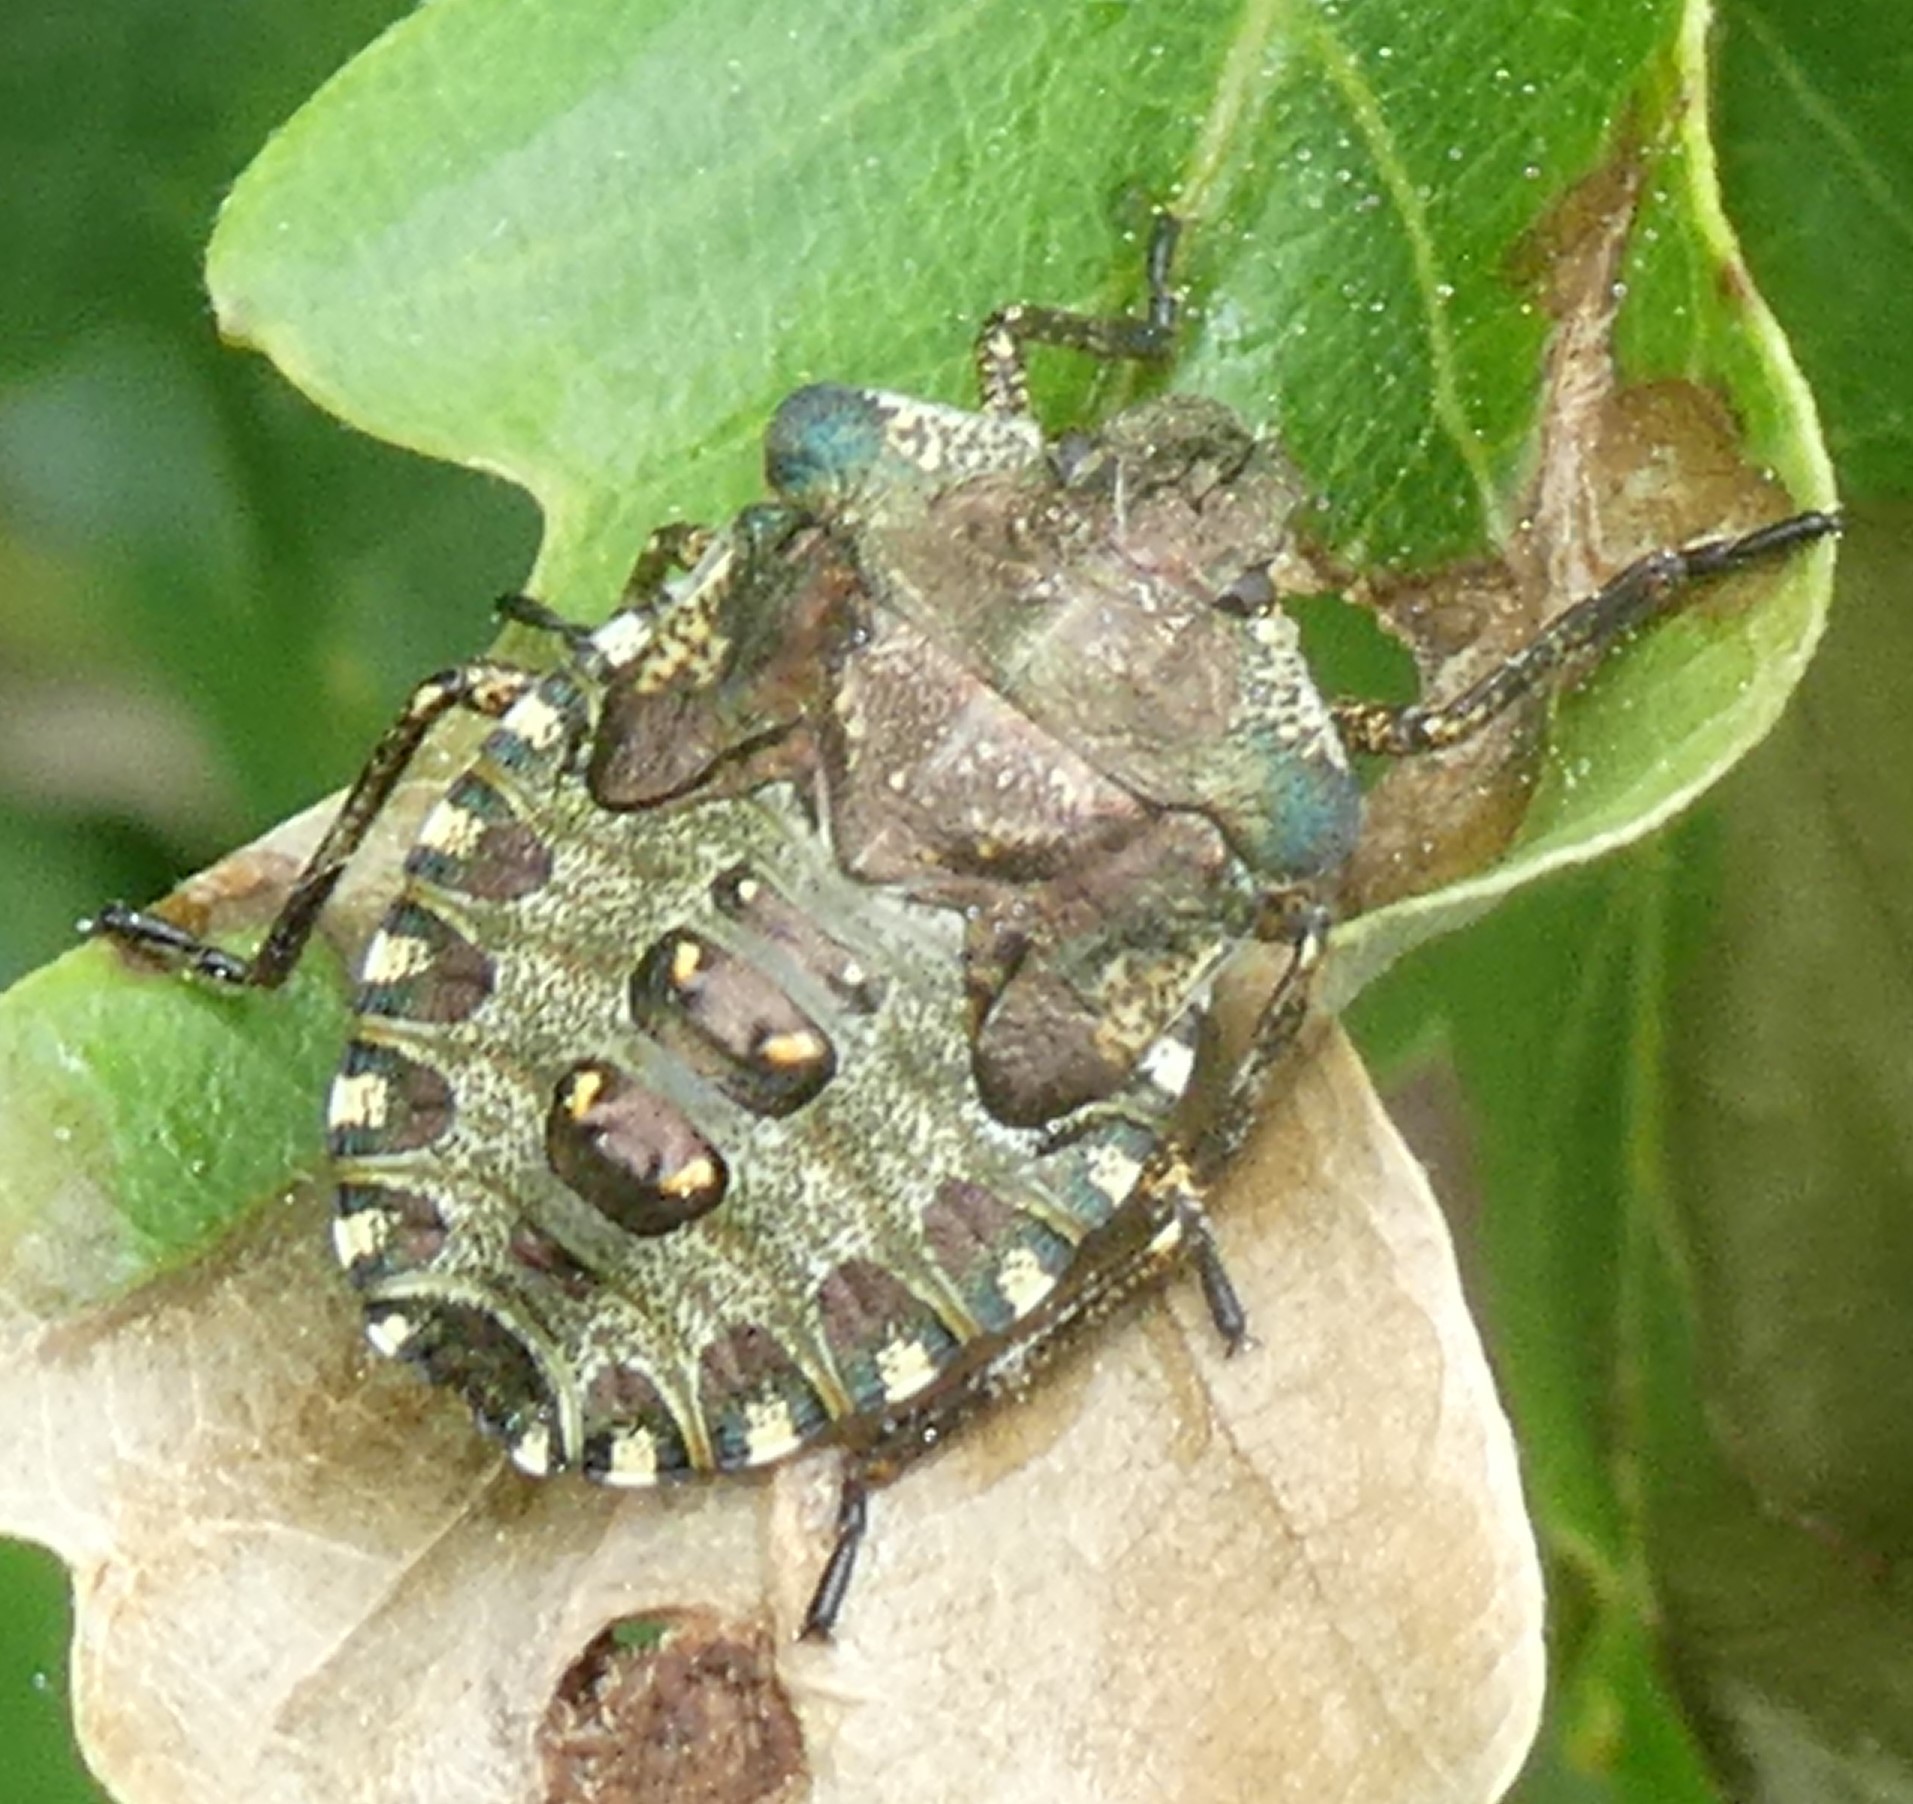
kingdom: Animalia
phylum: Arthropoda
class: Insecta
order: Hemiptera
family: Pentatomidae
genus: Pentatoma
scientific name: Pentatoma rufipes
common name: Forest bug
